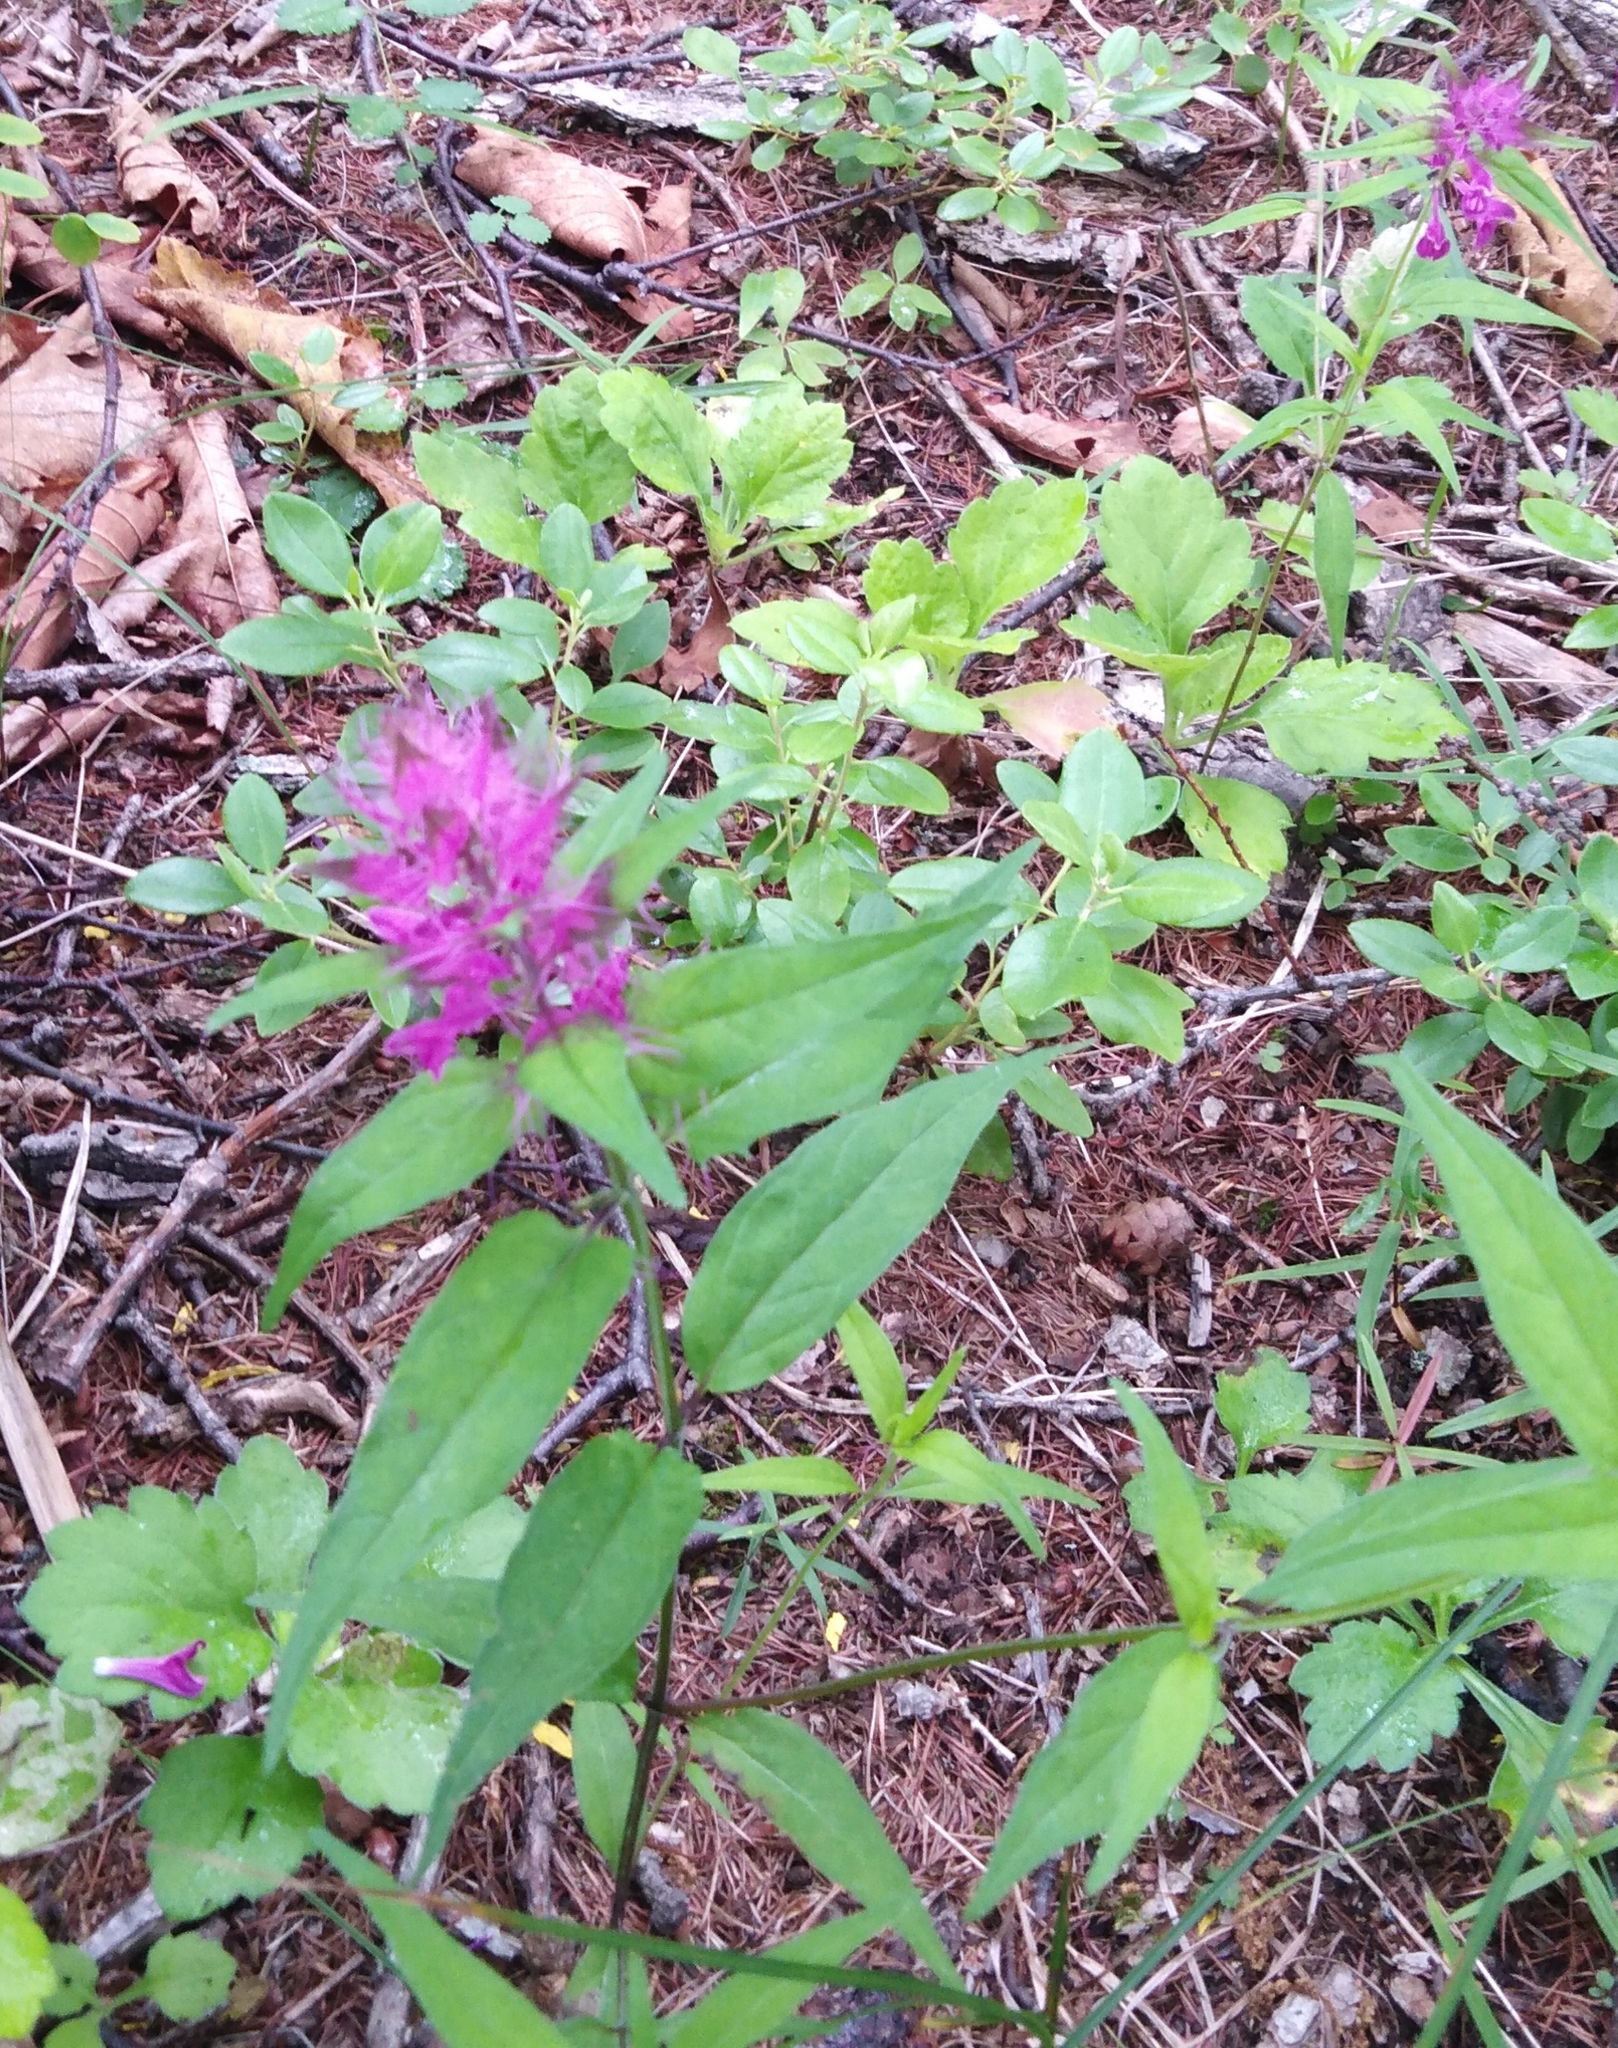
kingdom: Plantae
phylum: Tracheophyta
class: Magnoliopsida
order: Lamiales
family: Orobanchaceae
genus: Melampyrum
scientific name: Melampyrum setaceum
